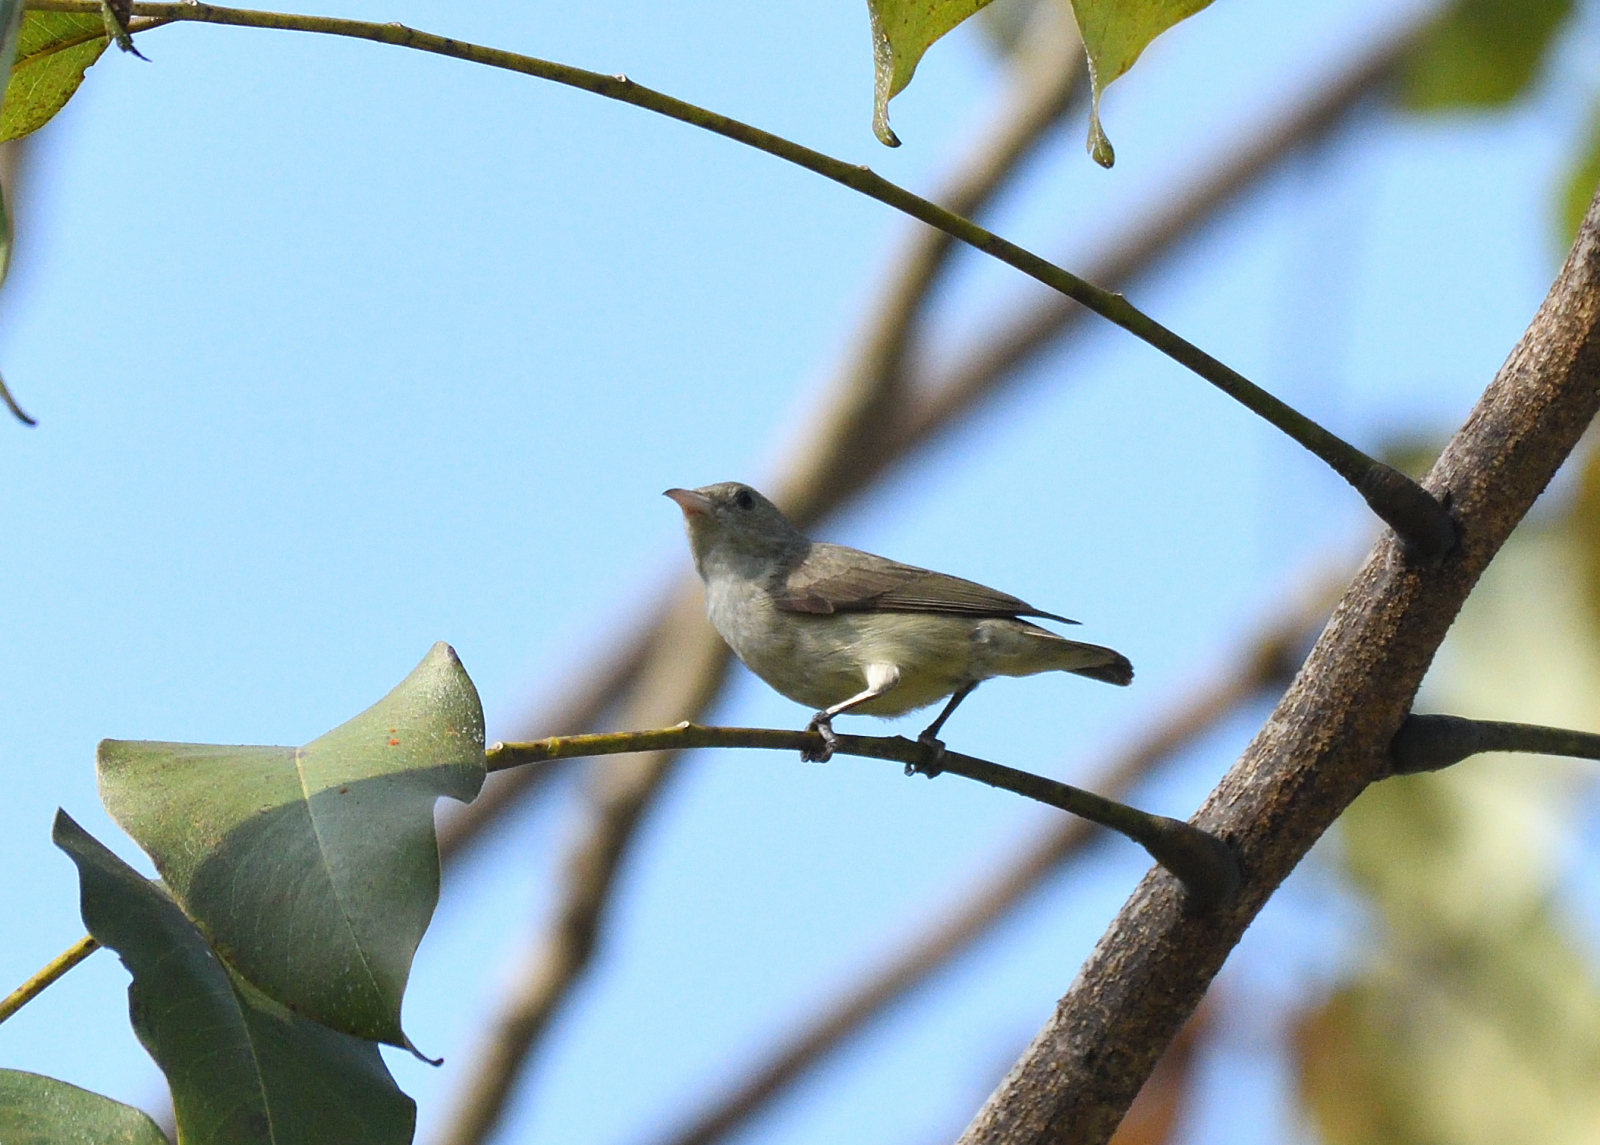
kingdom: Animalia
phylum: Chordata
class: Aves
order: Passeriformes
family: Dicaeidae
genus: Dicaeum
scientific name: Dicaeum erythrorhynchos
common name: Pale-billed flowerpecker
